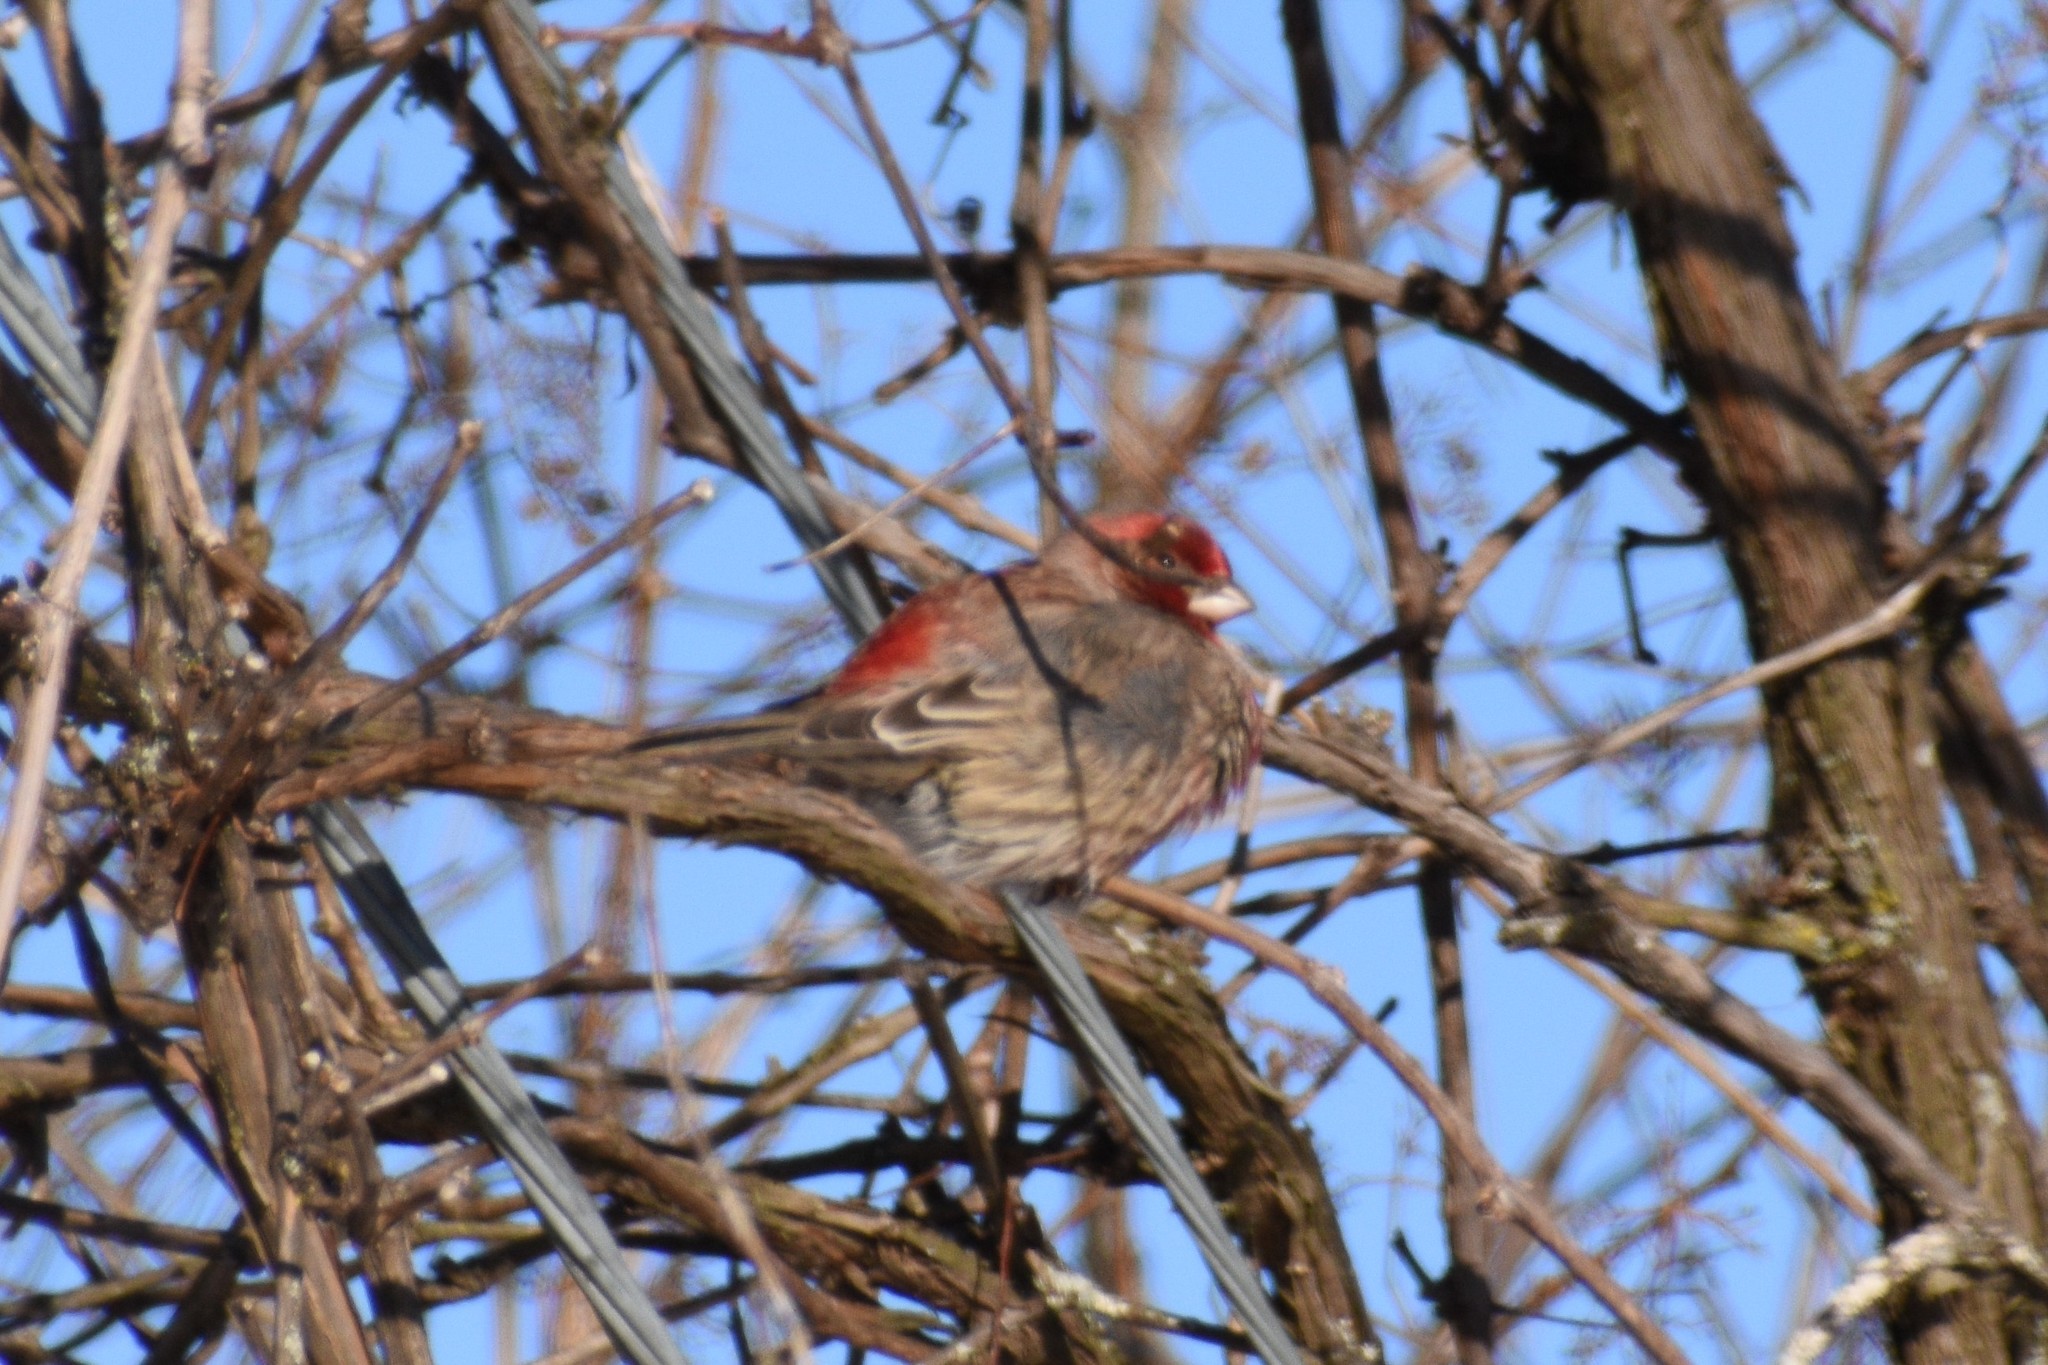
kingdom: Animalia
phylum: Chordata
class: Aves
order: Passeriformes
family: Fringillidae
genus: Haemorhous
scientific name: Haemorhous mexicanus
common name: House finch
